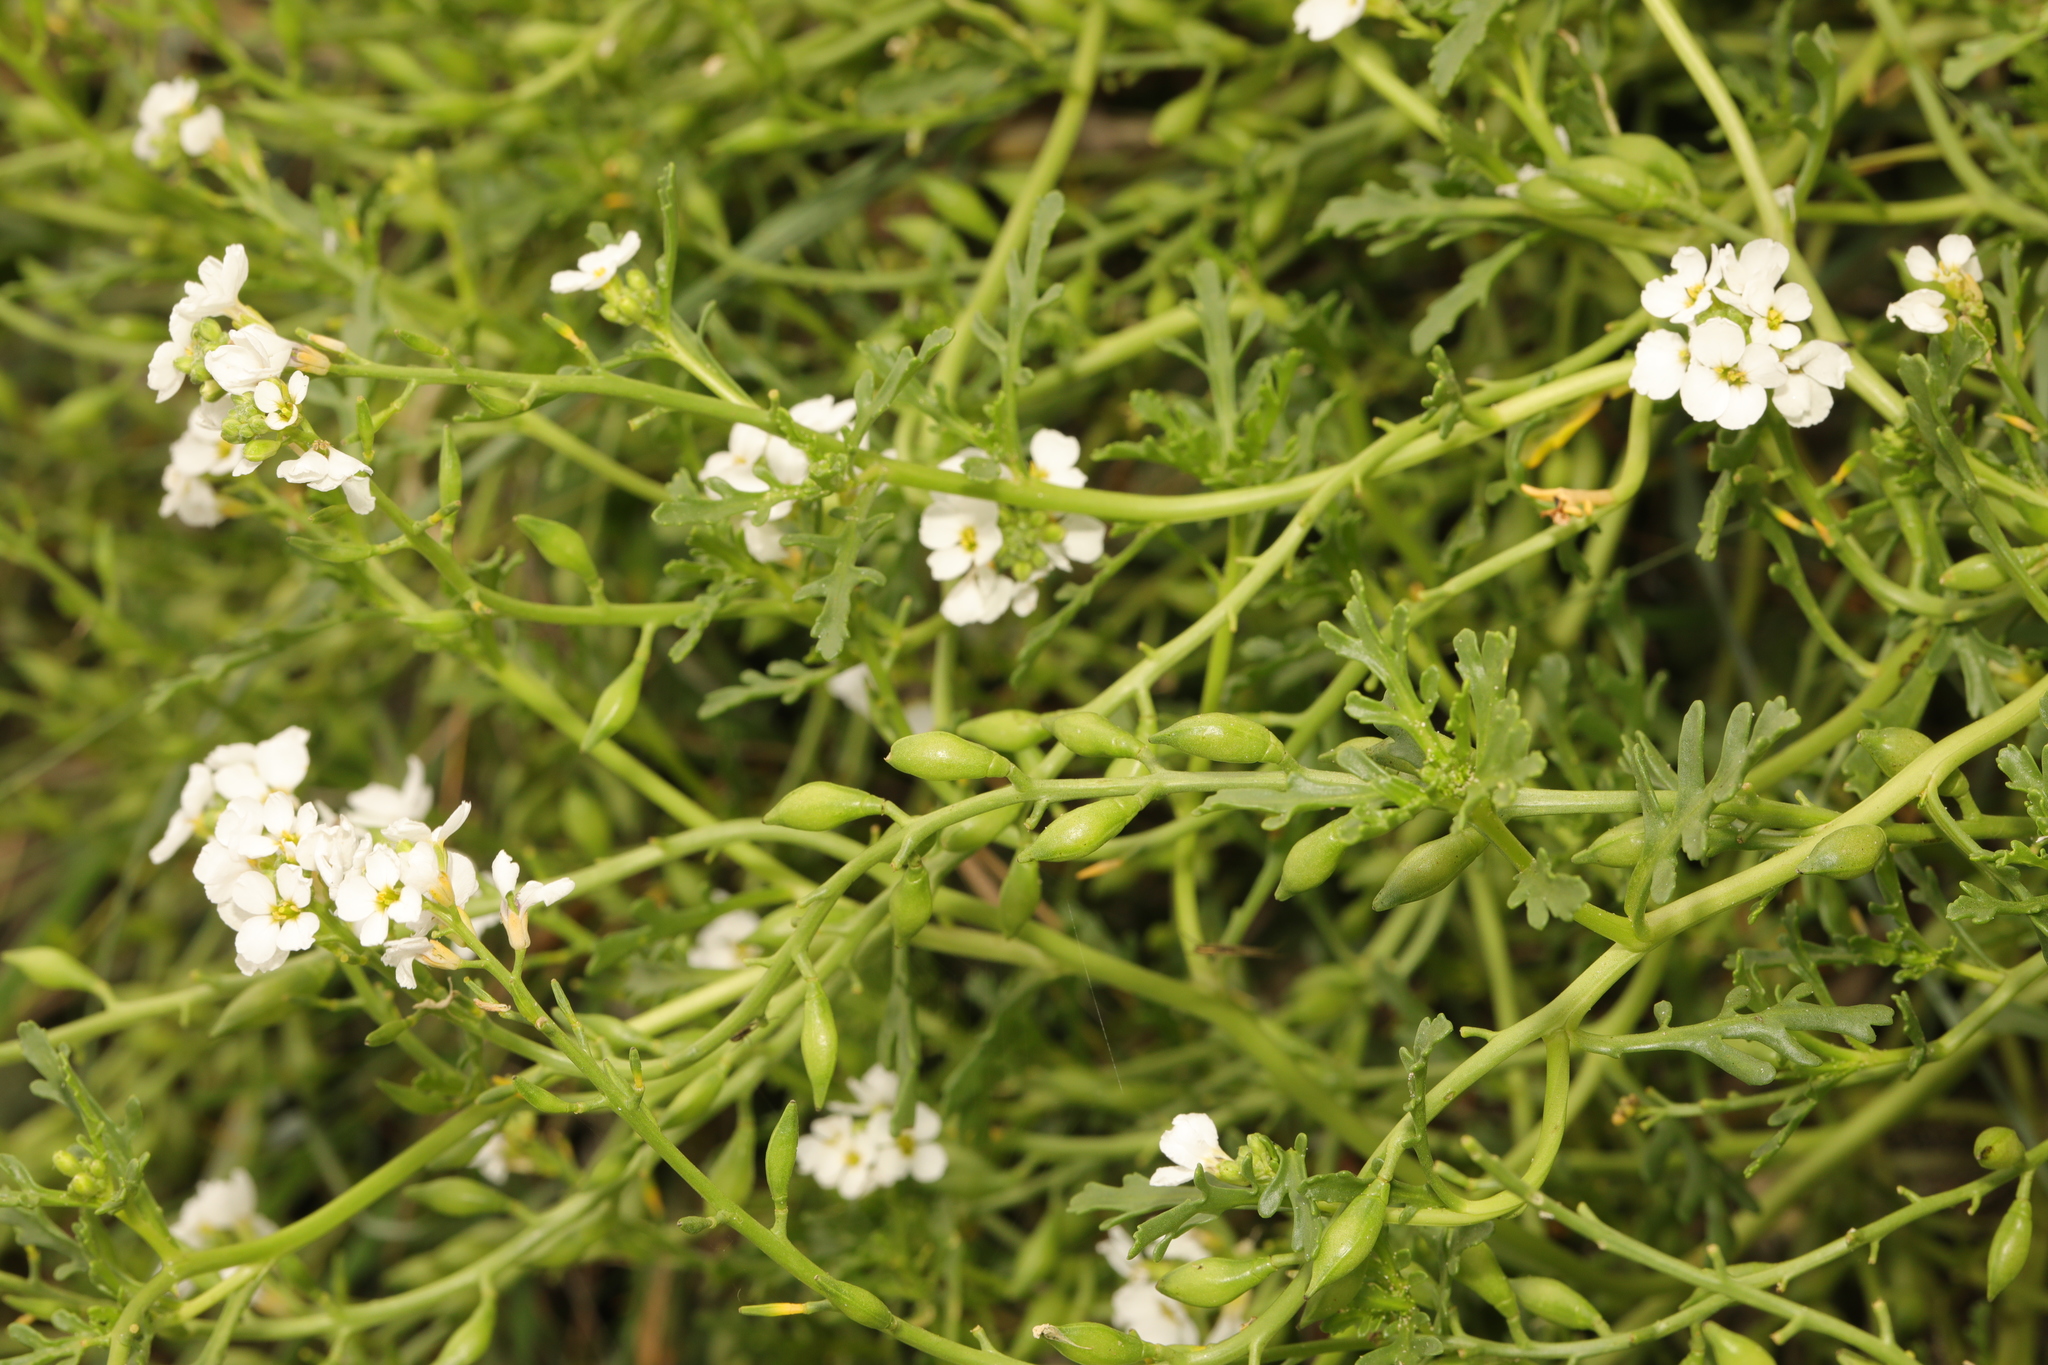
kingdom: Plantae
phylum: Tracheophyta
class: Magnoliopsida
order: Brassicales
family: Brassicaceae
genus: Cakile
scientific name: Cakile maritima
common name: Sea rocket
